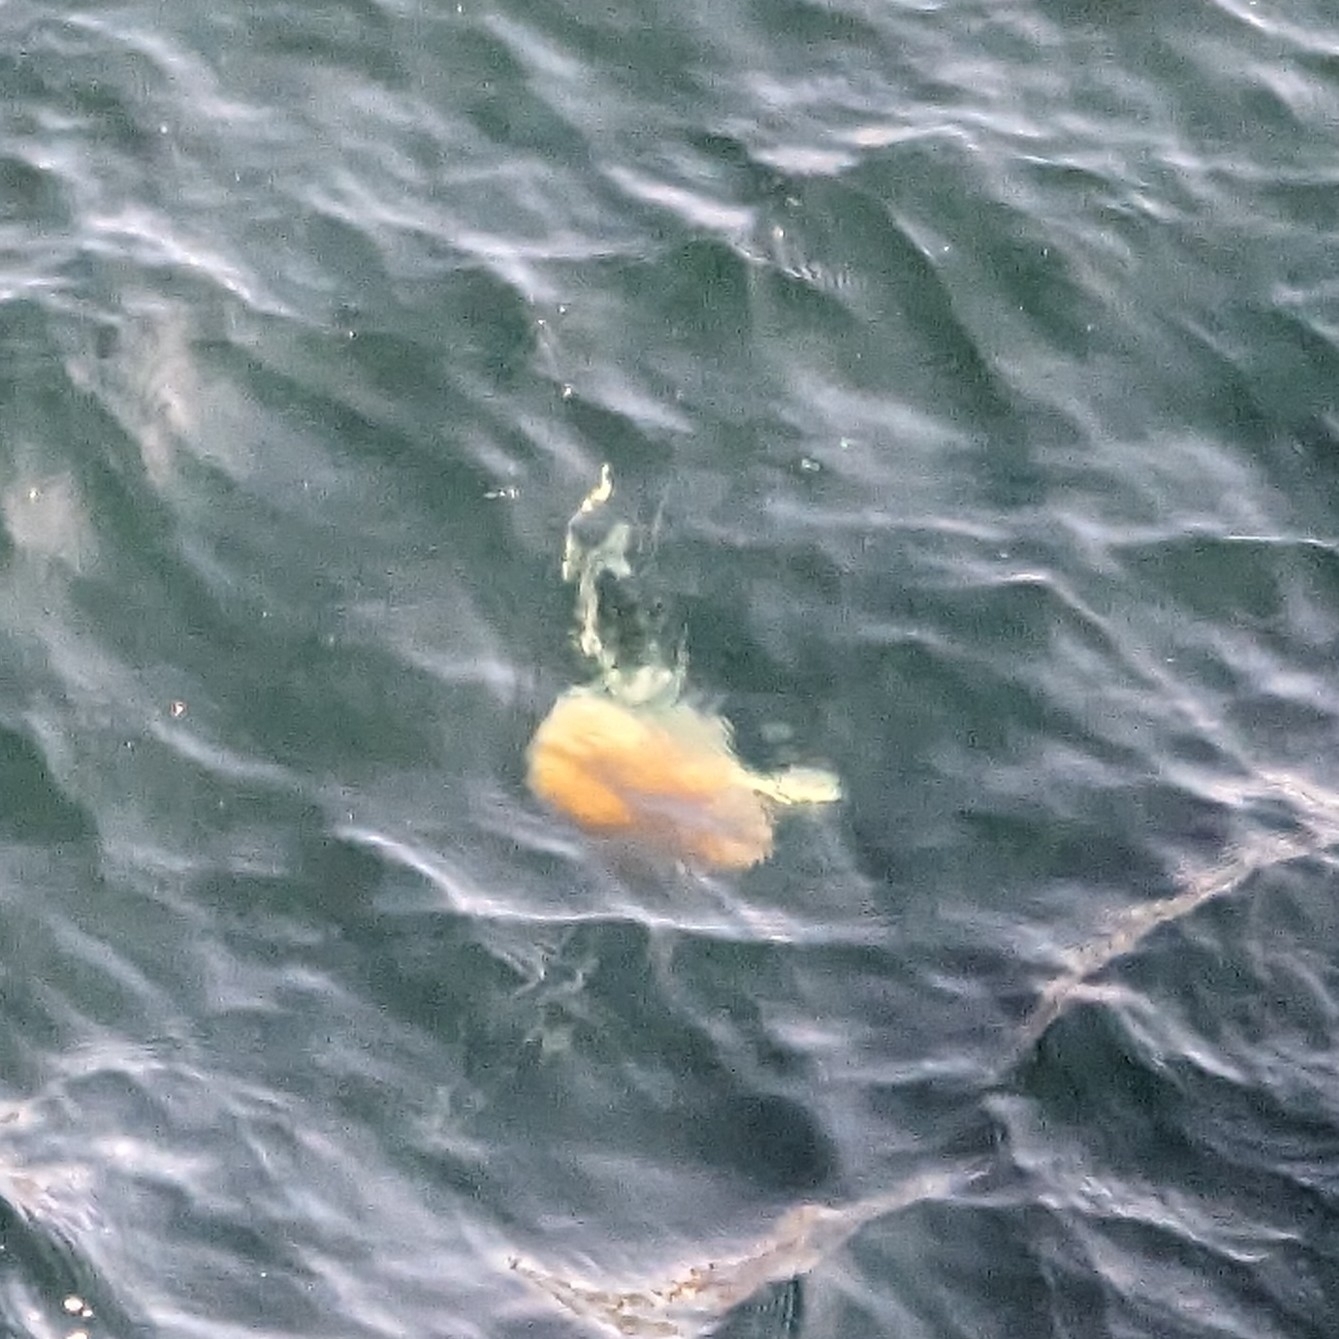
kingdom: Animalia
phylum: Cnidaria
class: Scyphozoa
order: Semaeostomeae
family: Cyaneidae
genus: Cyanea
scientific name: Cyanea ferruginea
